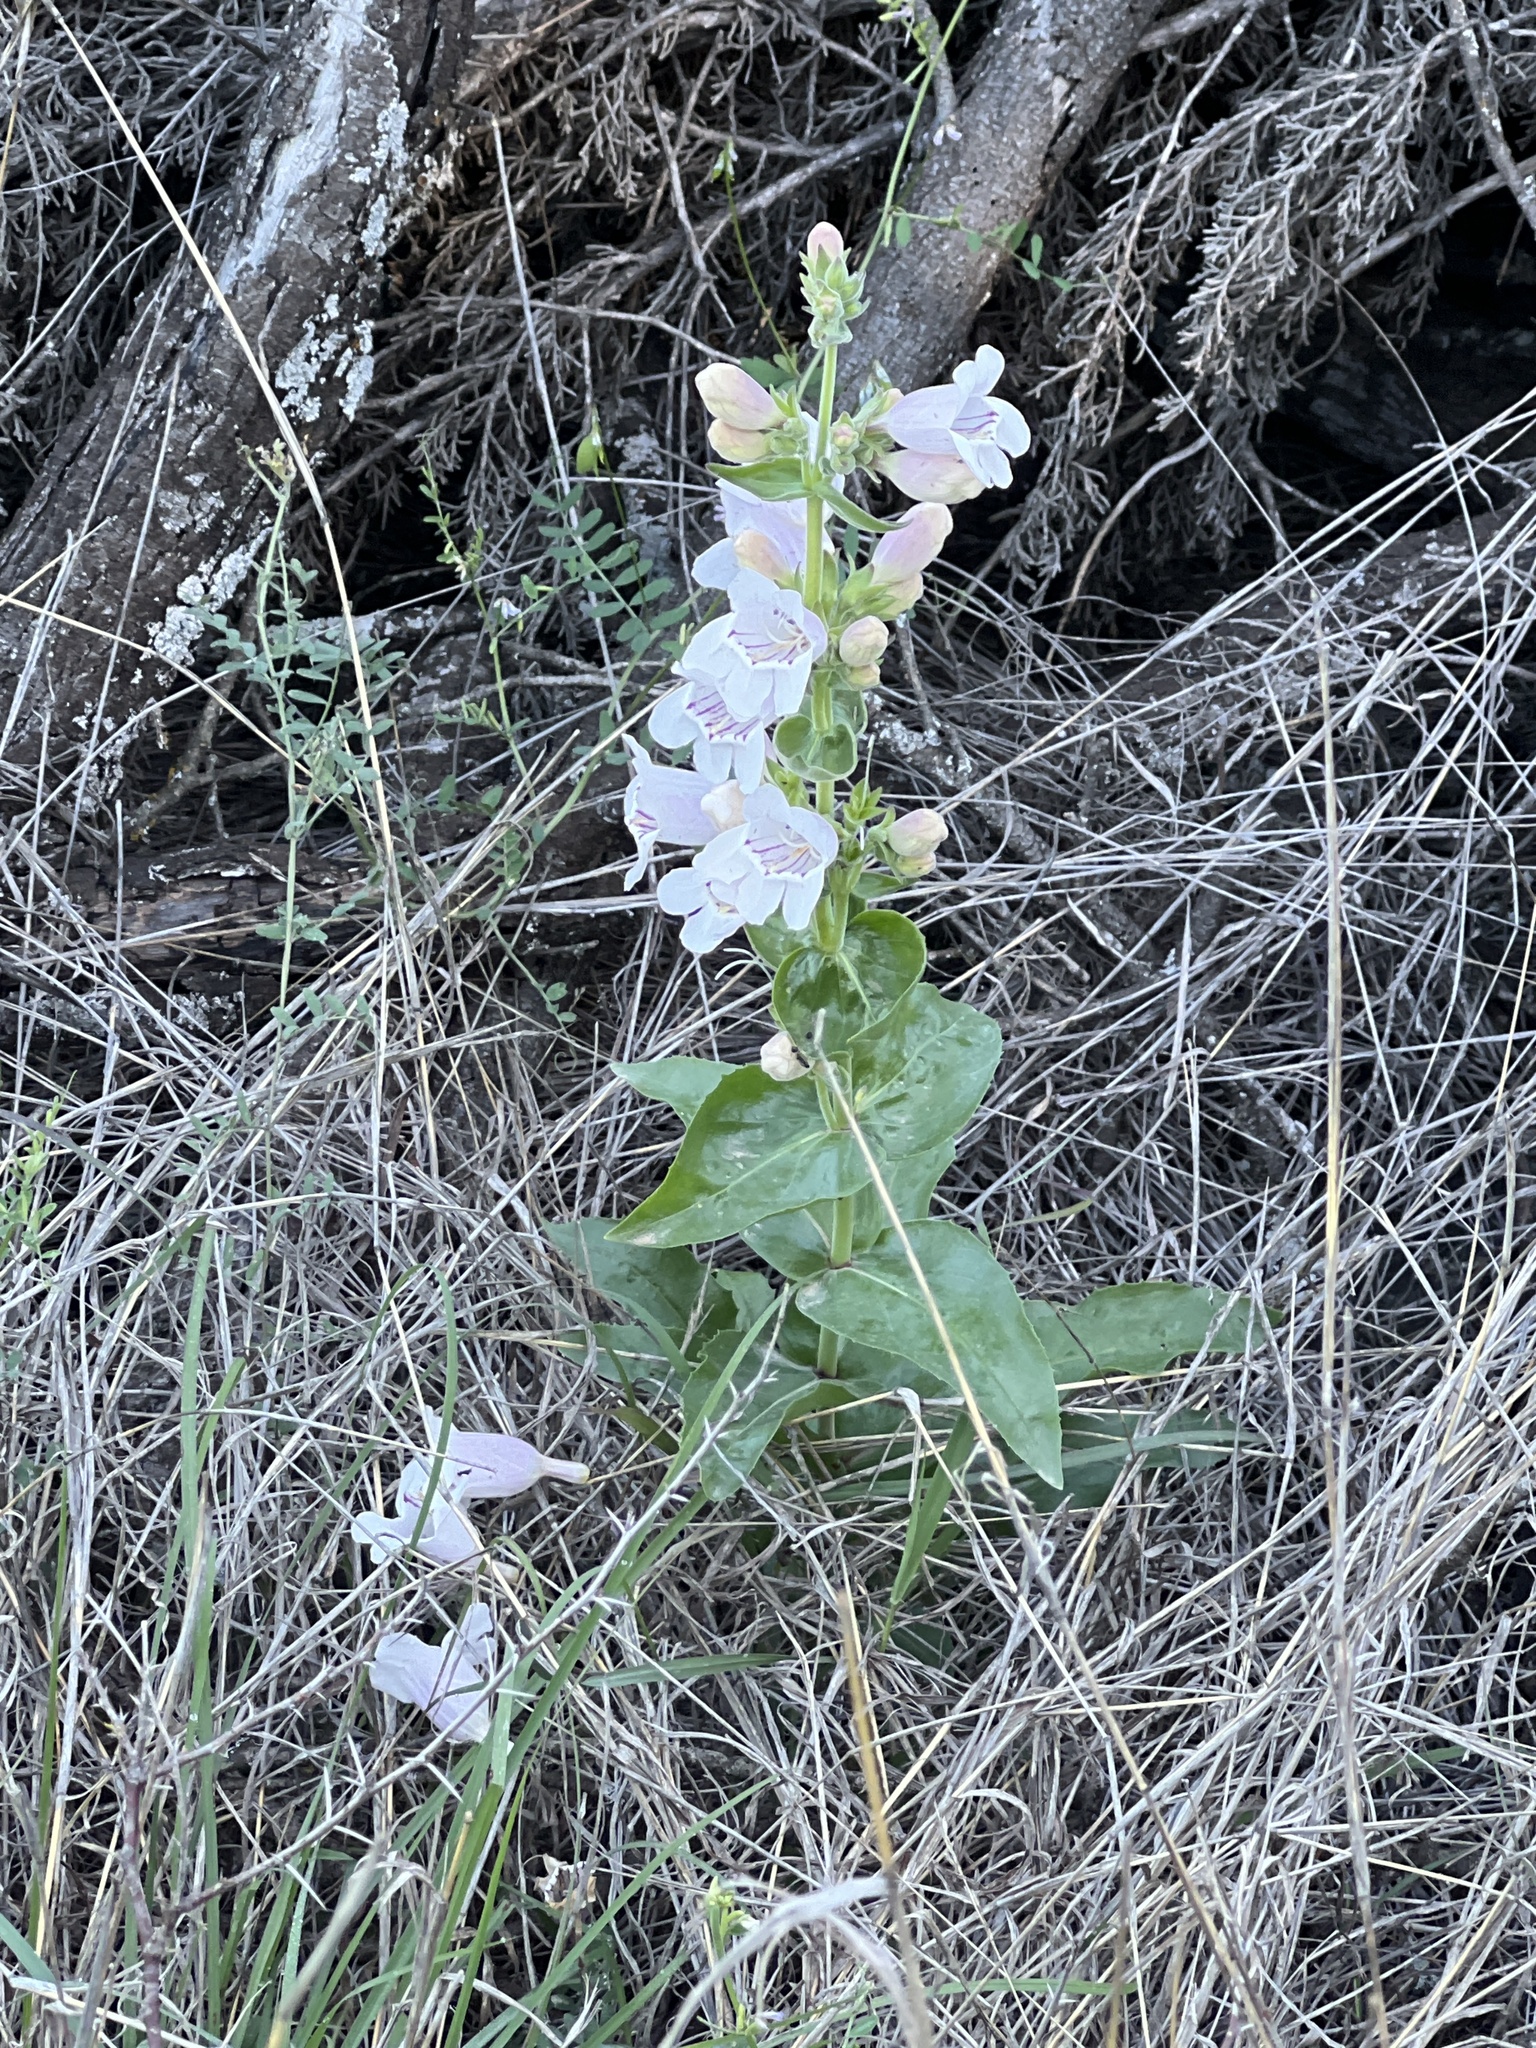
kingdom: Plantae
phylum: Tracheophyta
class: Magnoliopsida
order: Lamiales
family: Plantaginaceae
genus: Penstemon
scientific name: Penstemon cobaea
